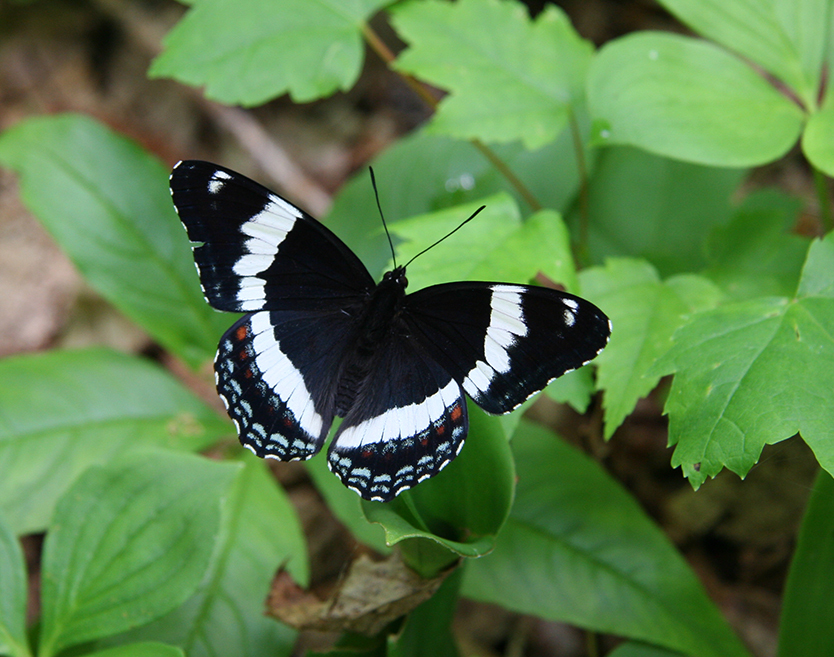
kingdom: Animalia
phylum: Arthropoda
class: Insecta
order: Lepidoptera
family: Nymphalidae
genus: Limenitis
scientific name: Limenitis arthemis
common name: Red-spotted admiral
